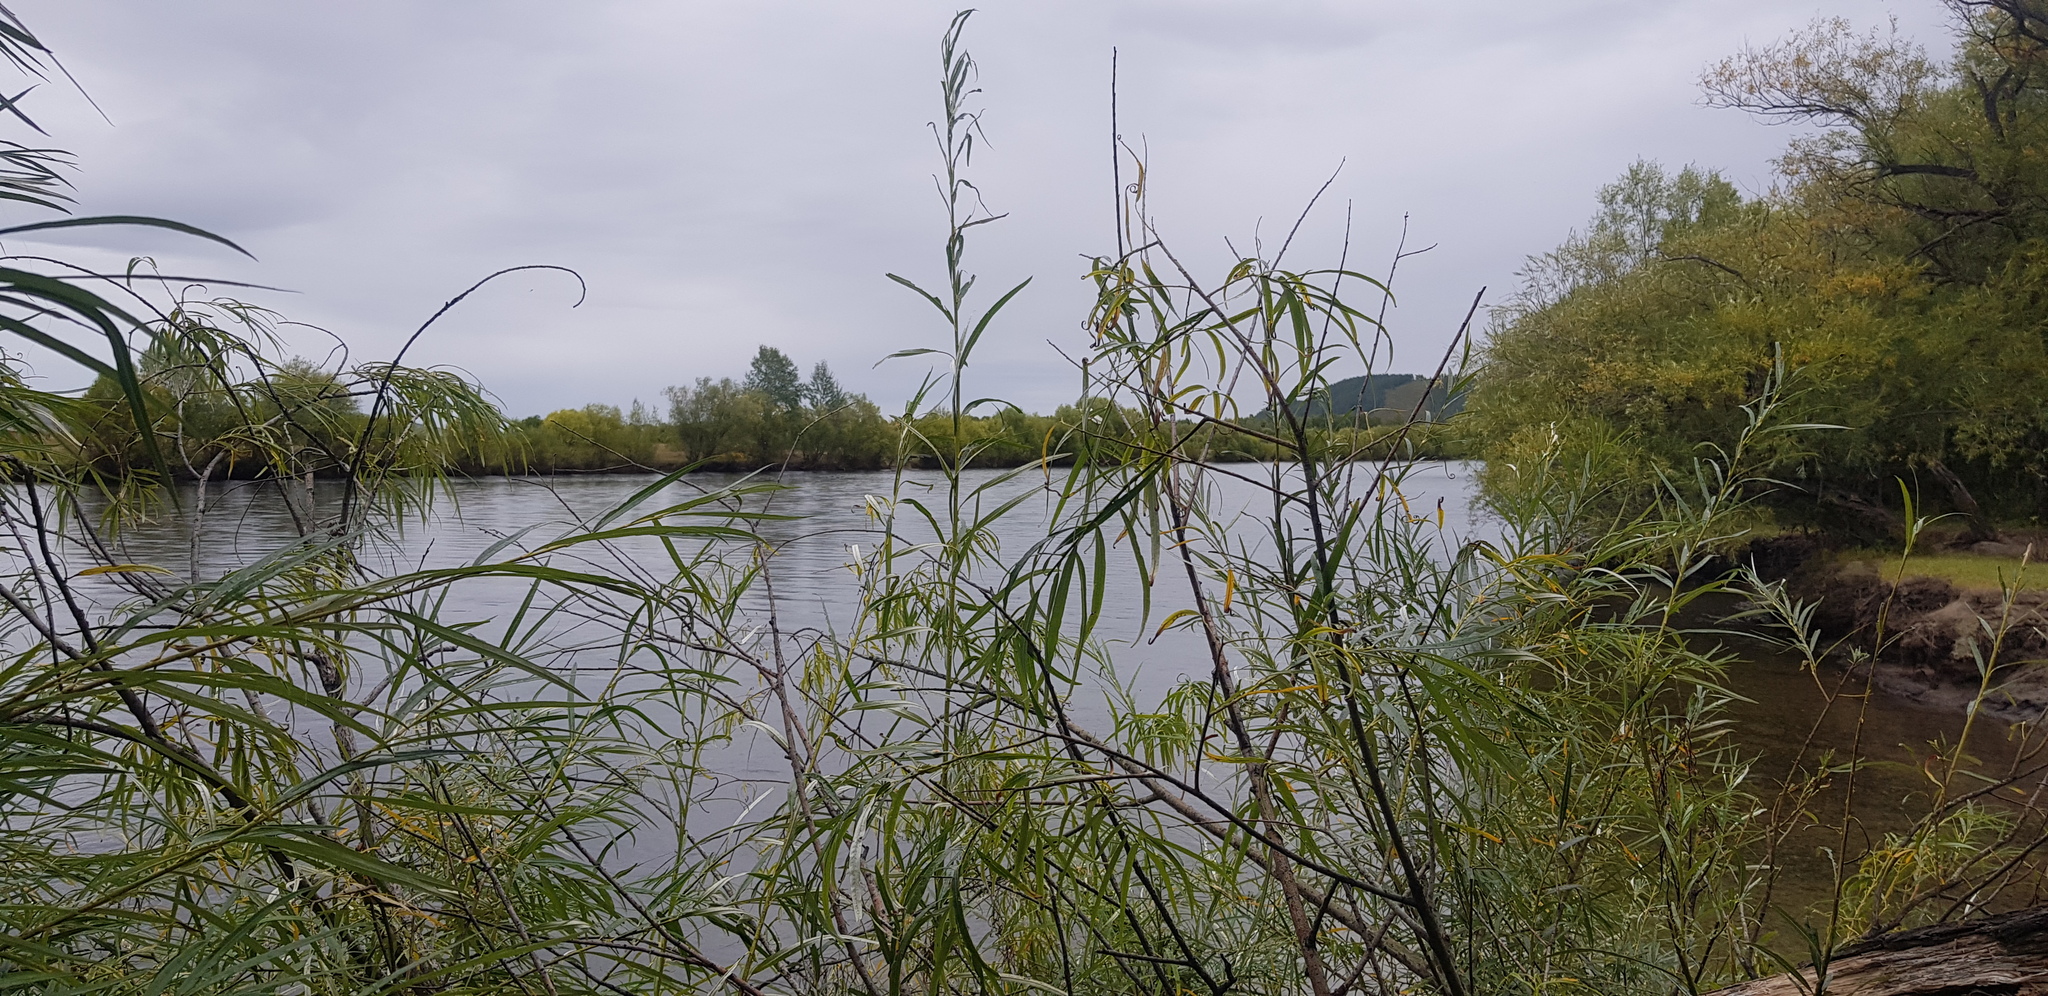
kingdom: Plantae
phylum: Tracheophyta
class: Magnoliopsida
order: Malpighiales
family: Salicaceae
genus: Salix
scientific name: Salix viminalis
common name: Osier
